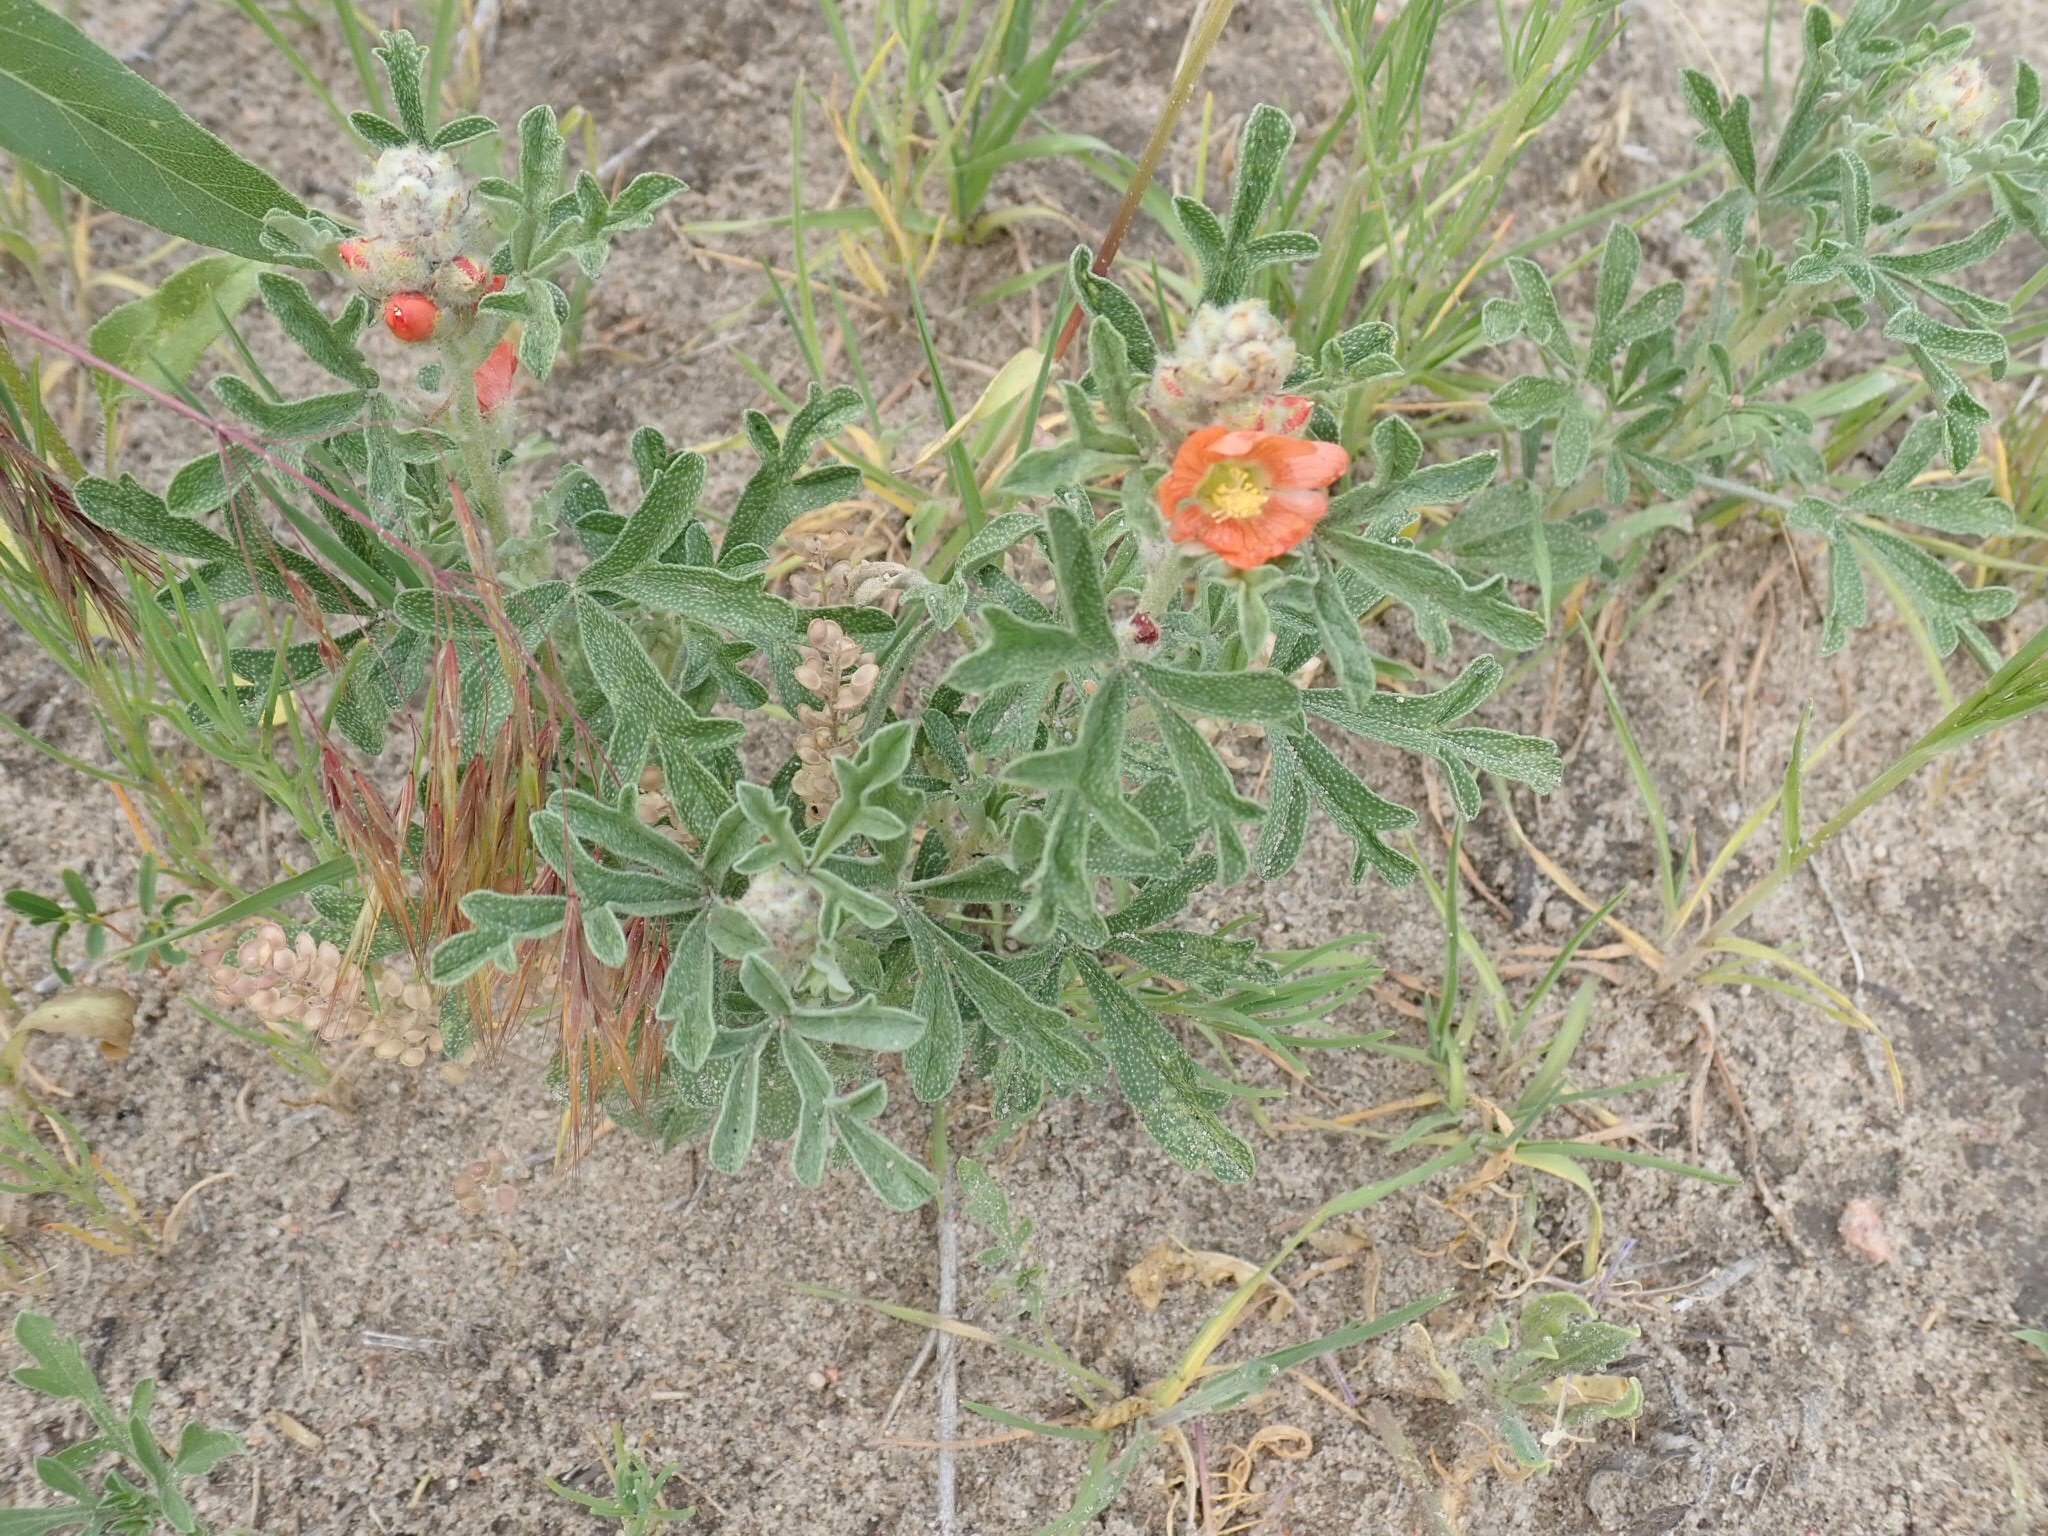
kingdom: Plantae
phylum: Tracheophyta
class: Magnoliopsida
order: Malvales
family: Malvaceae
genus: Sphaeralcea
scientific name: Sphaeralcea coccinea
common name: Moss-rose
